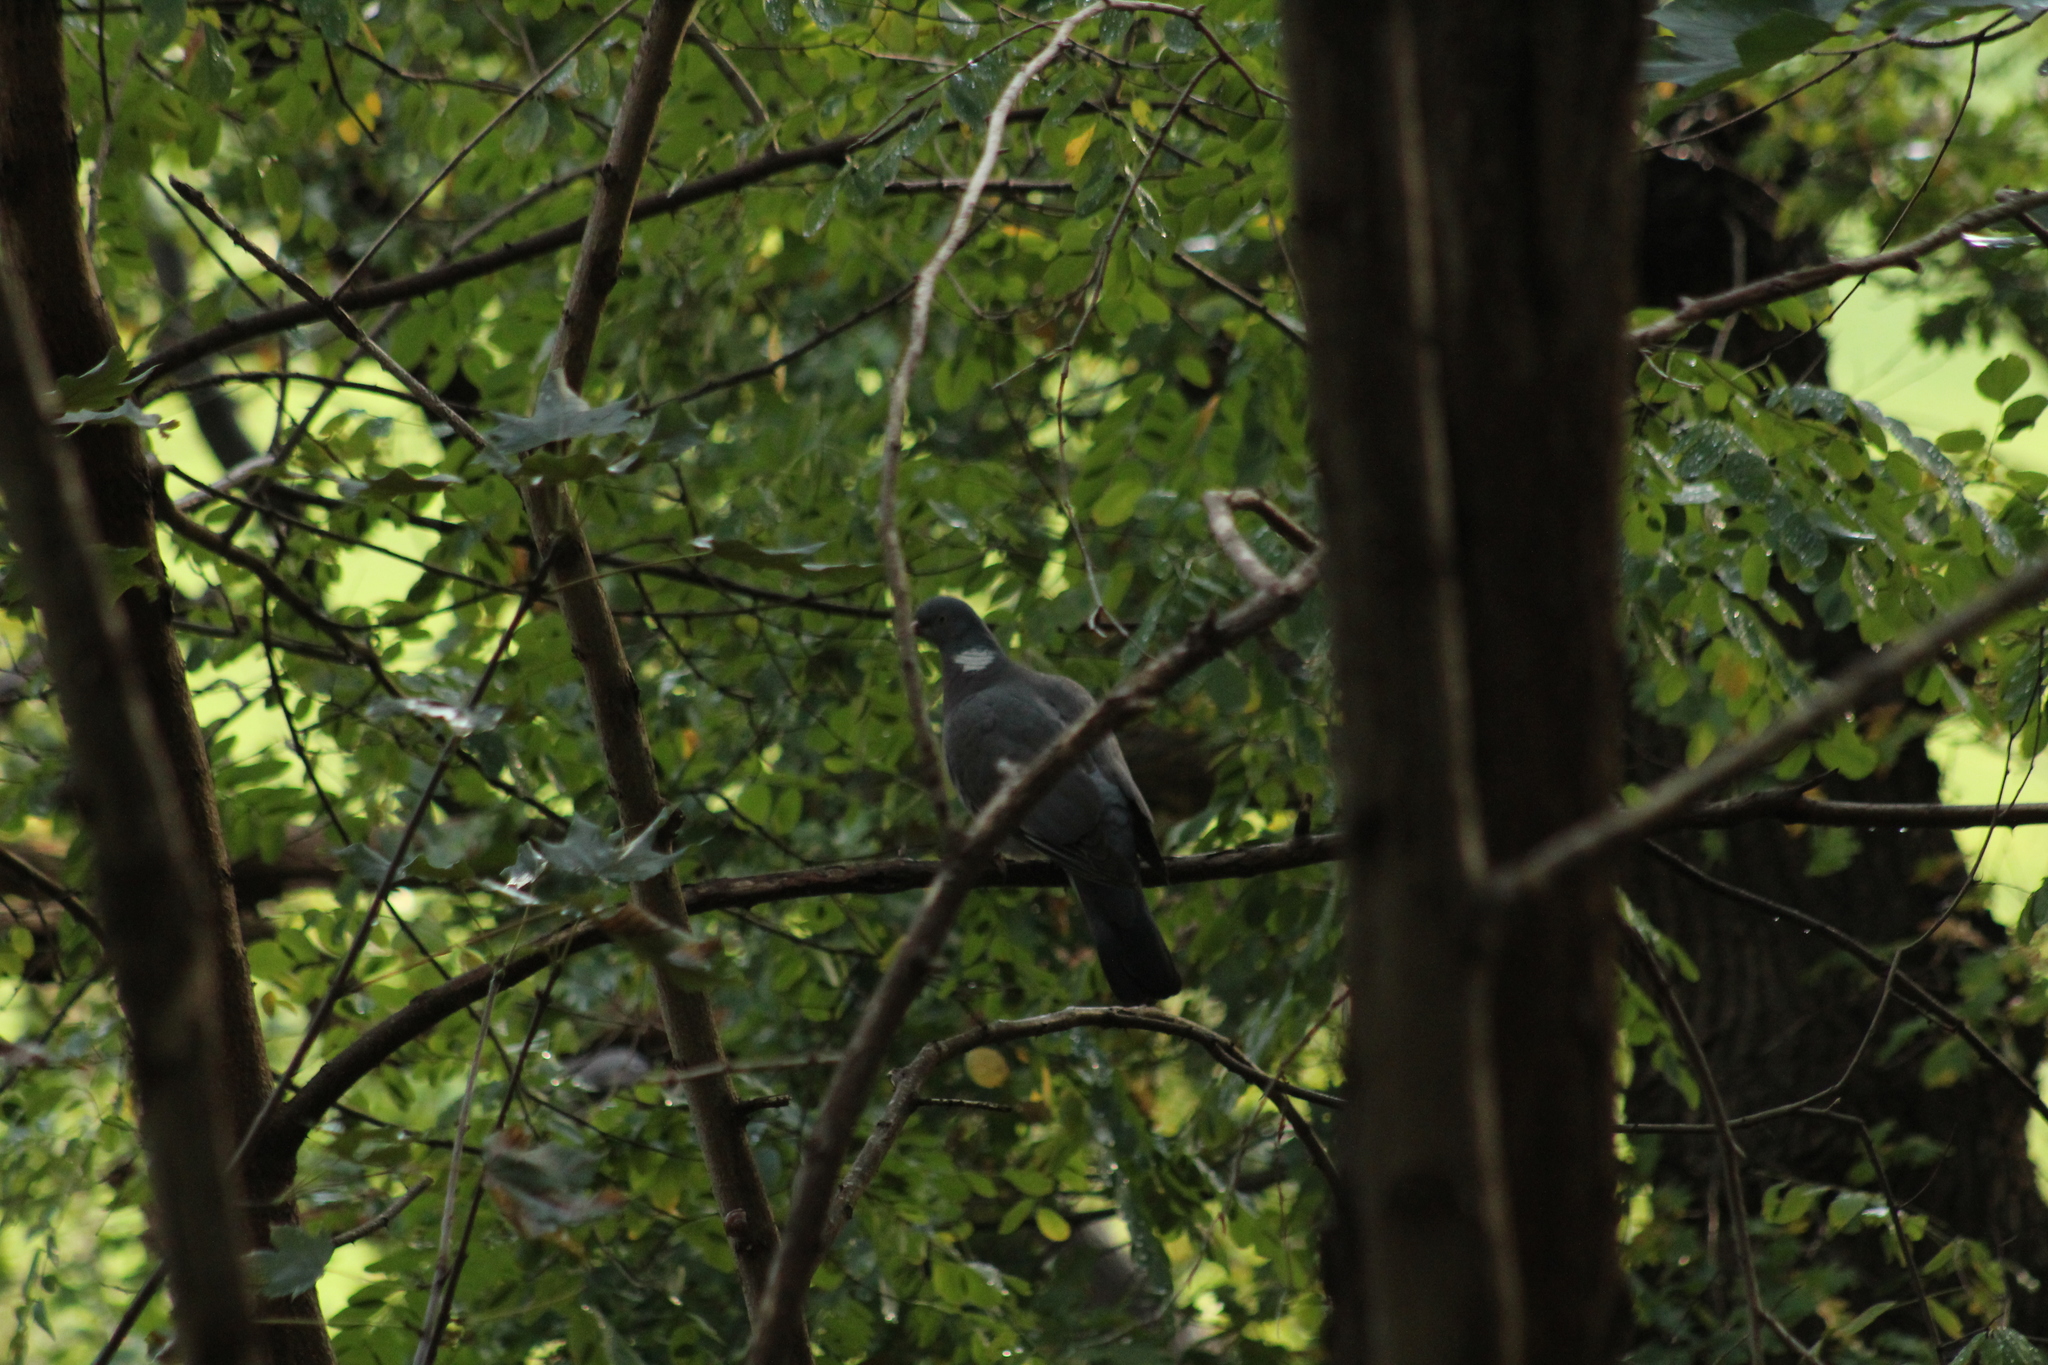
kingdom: Animalia
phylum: Chordata
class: Aves
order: Columbiformes
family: Columbidae
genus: Columba
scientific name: Columba palumbus
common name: Common wood pigeon
